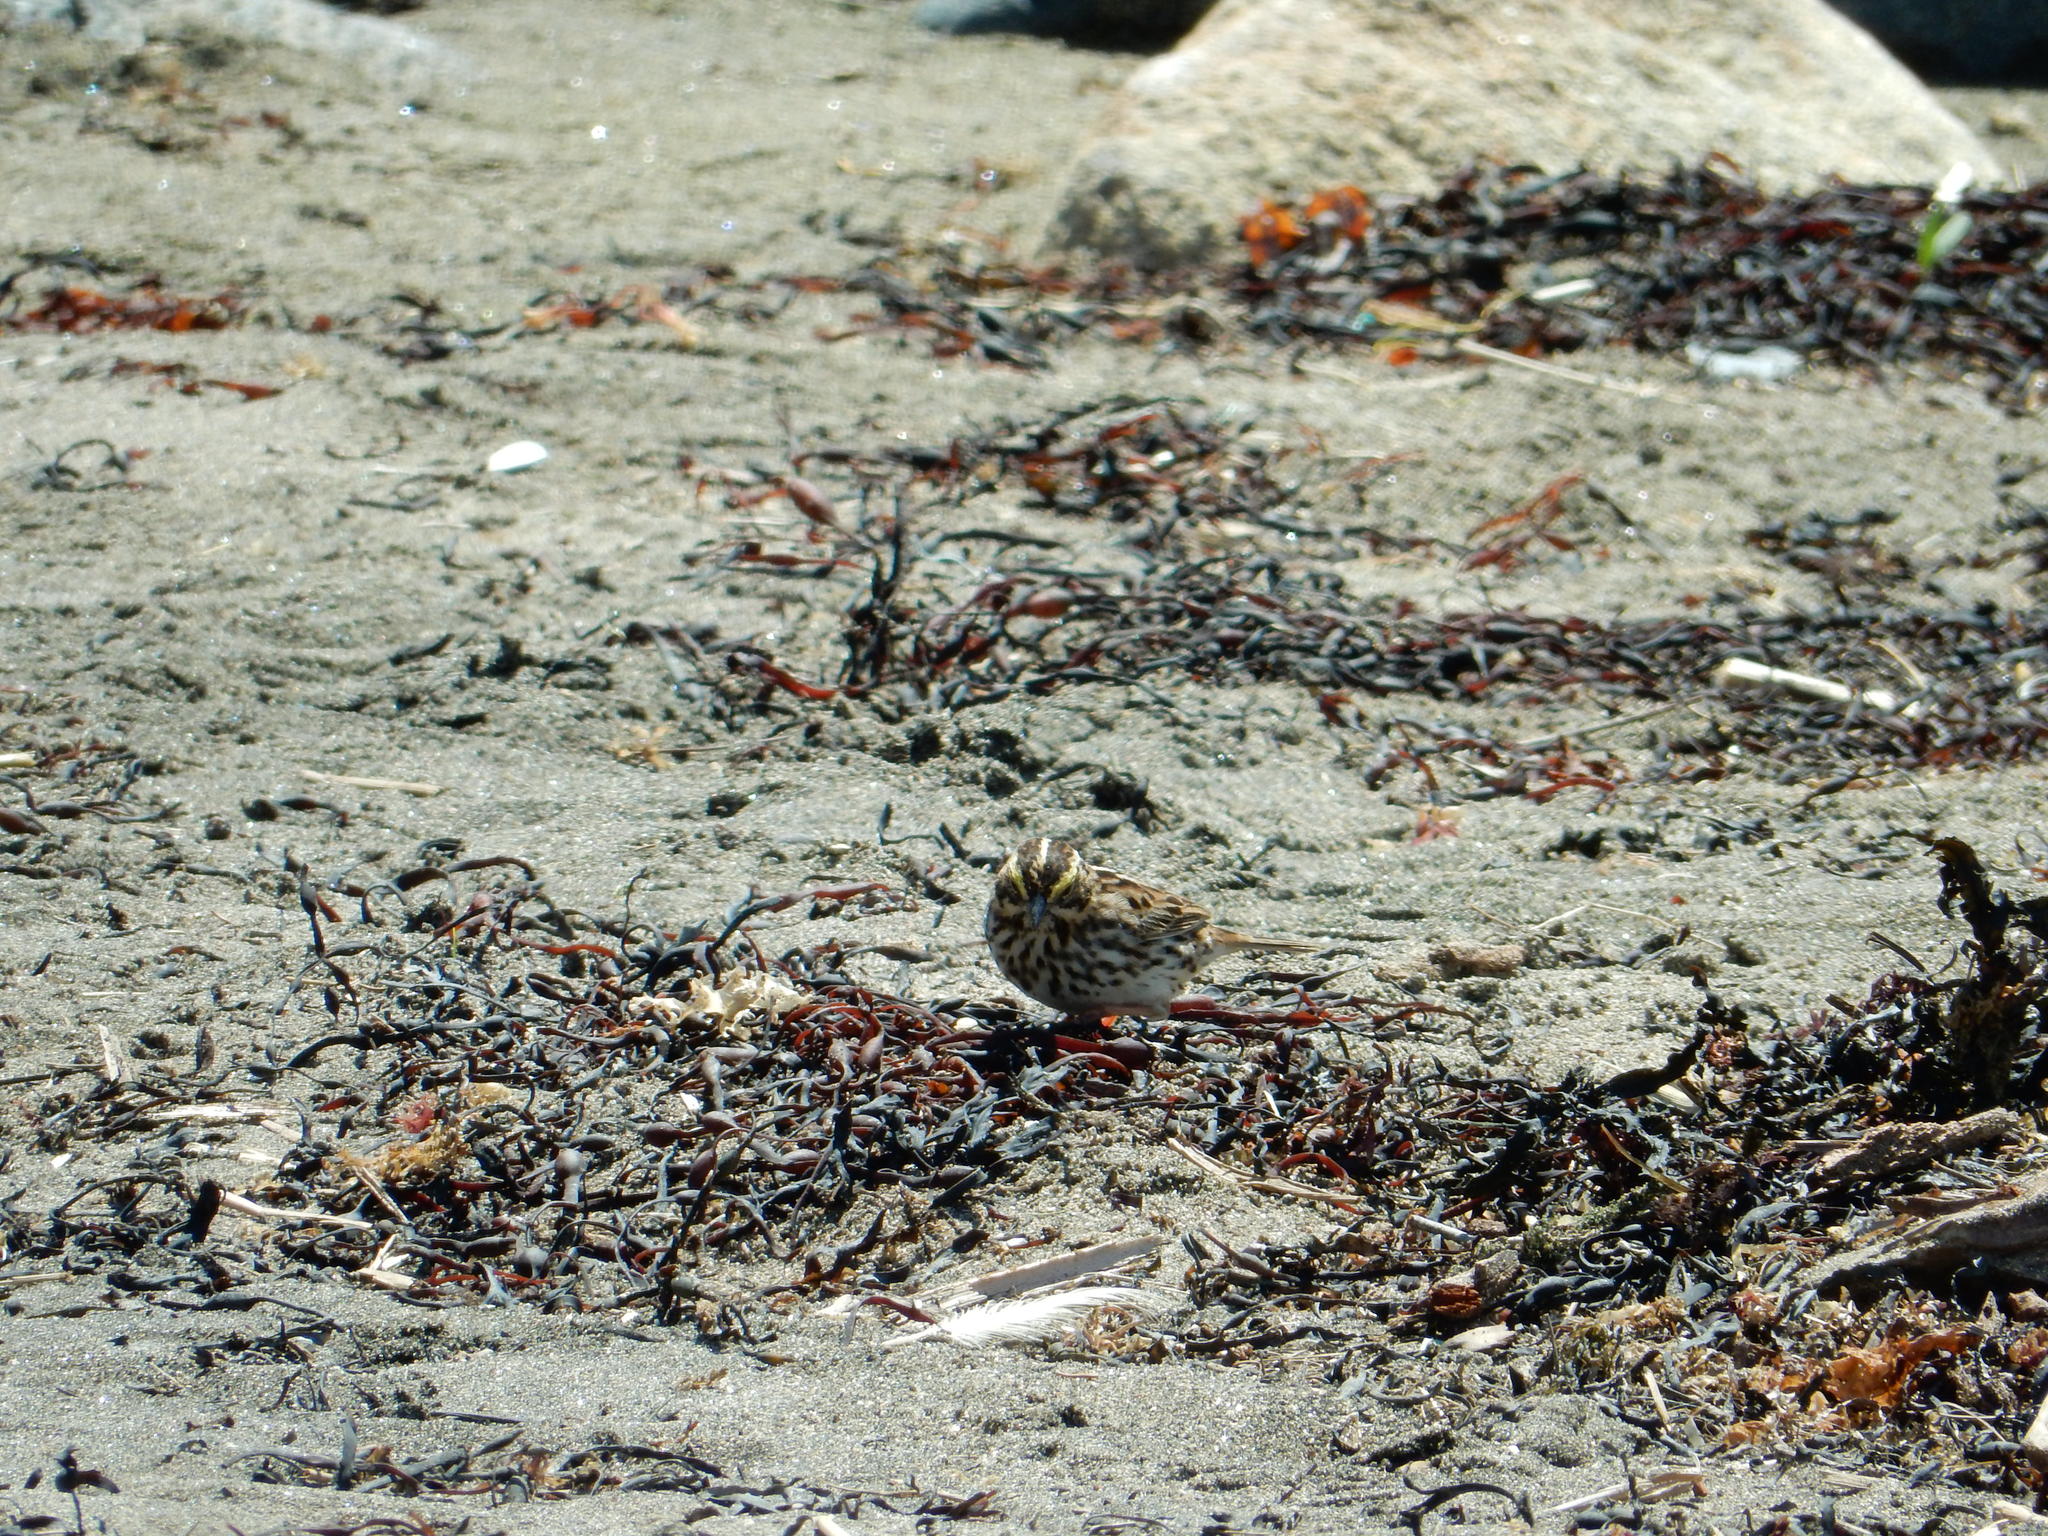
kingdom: Animalia
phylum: Chordata
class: Aves
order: Passeriformes
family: Passerellidae
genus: Passerculus
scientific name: Passerculus sandwichensis
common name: Savannah sparrow
